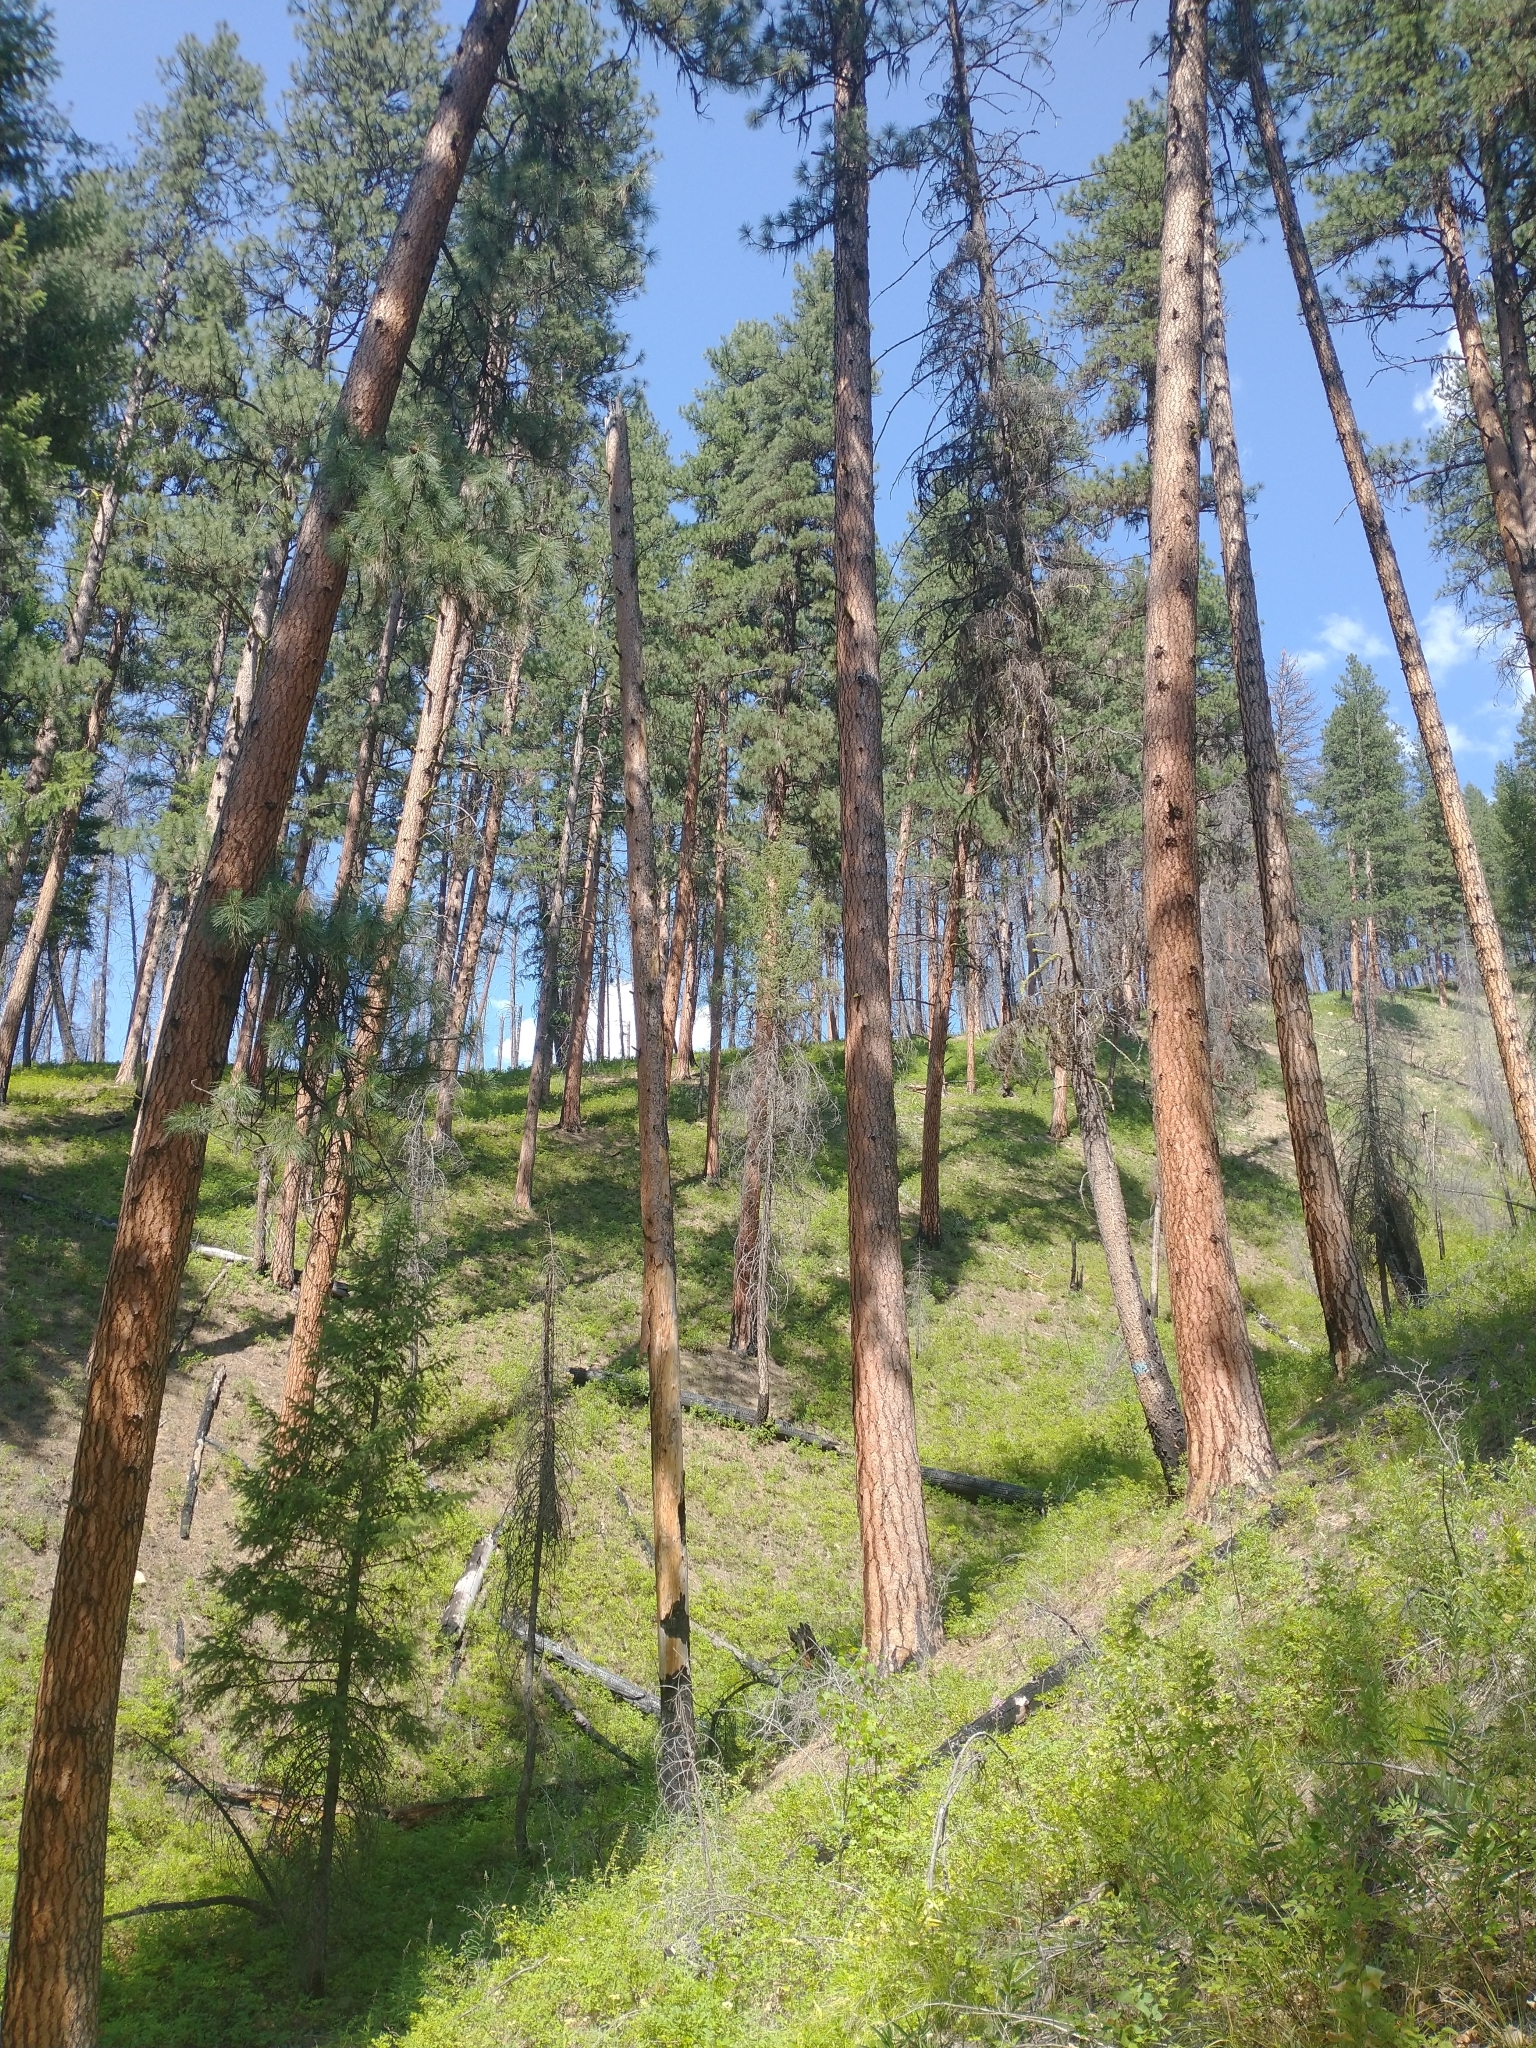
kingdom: Plantae
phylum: Tracheophyta
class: Pinopsida
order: Pinales
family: Pinaceae
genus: Pinus
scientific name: Pinus ponderosa
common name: Western yellow-pine
